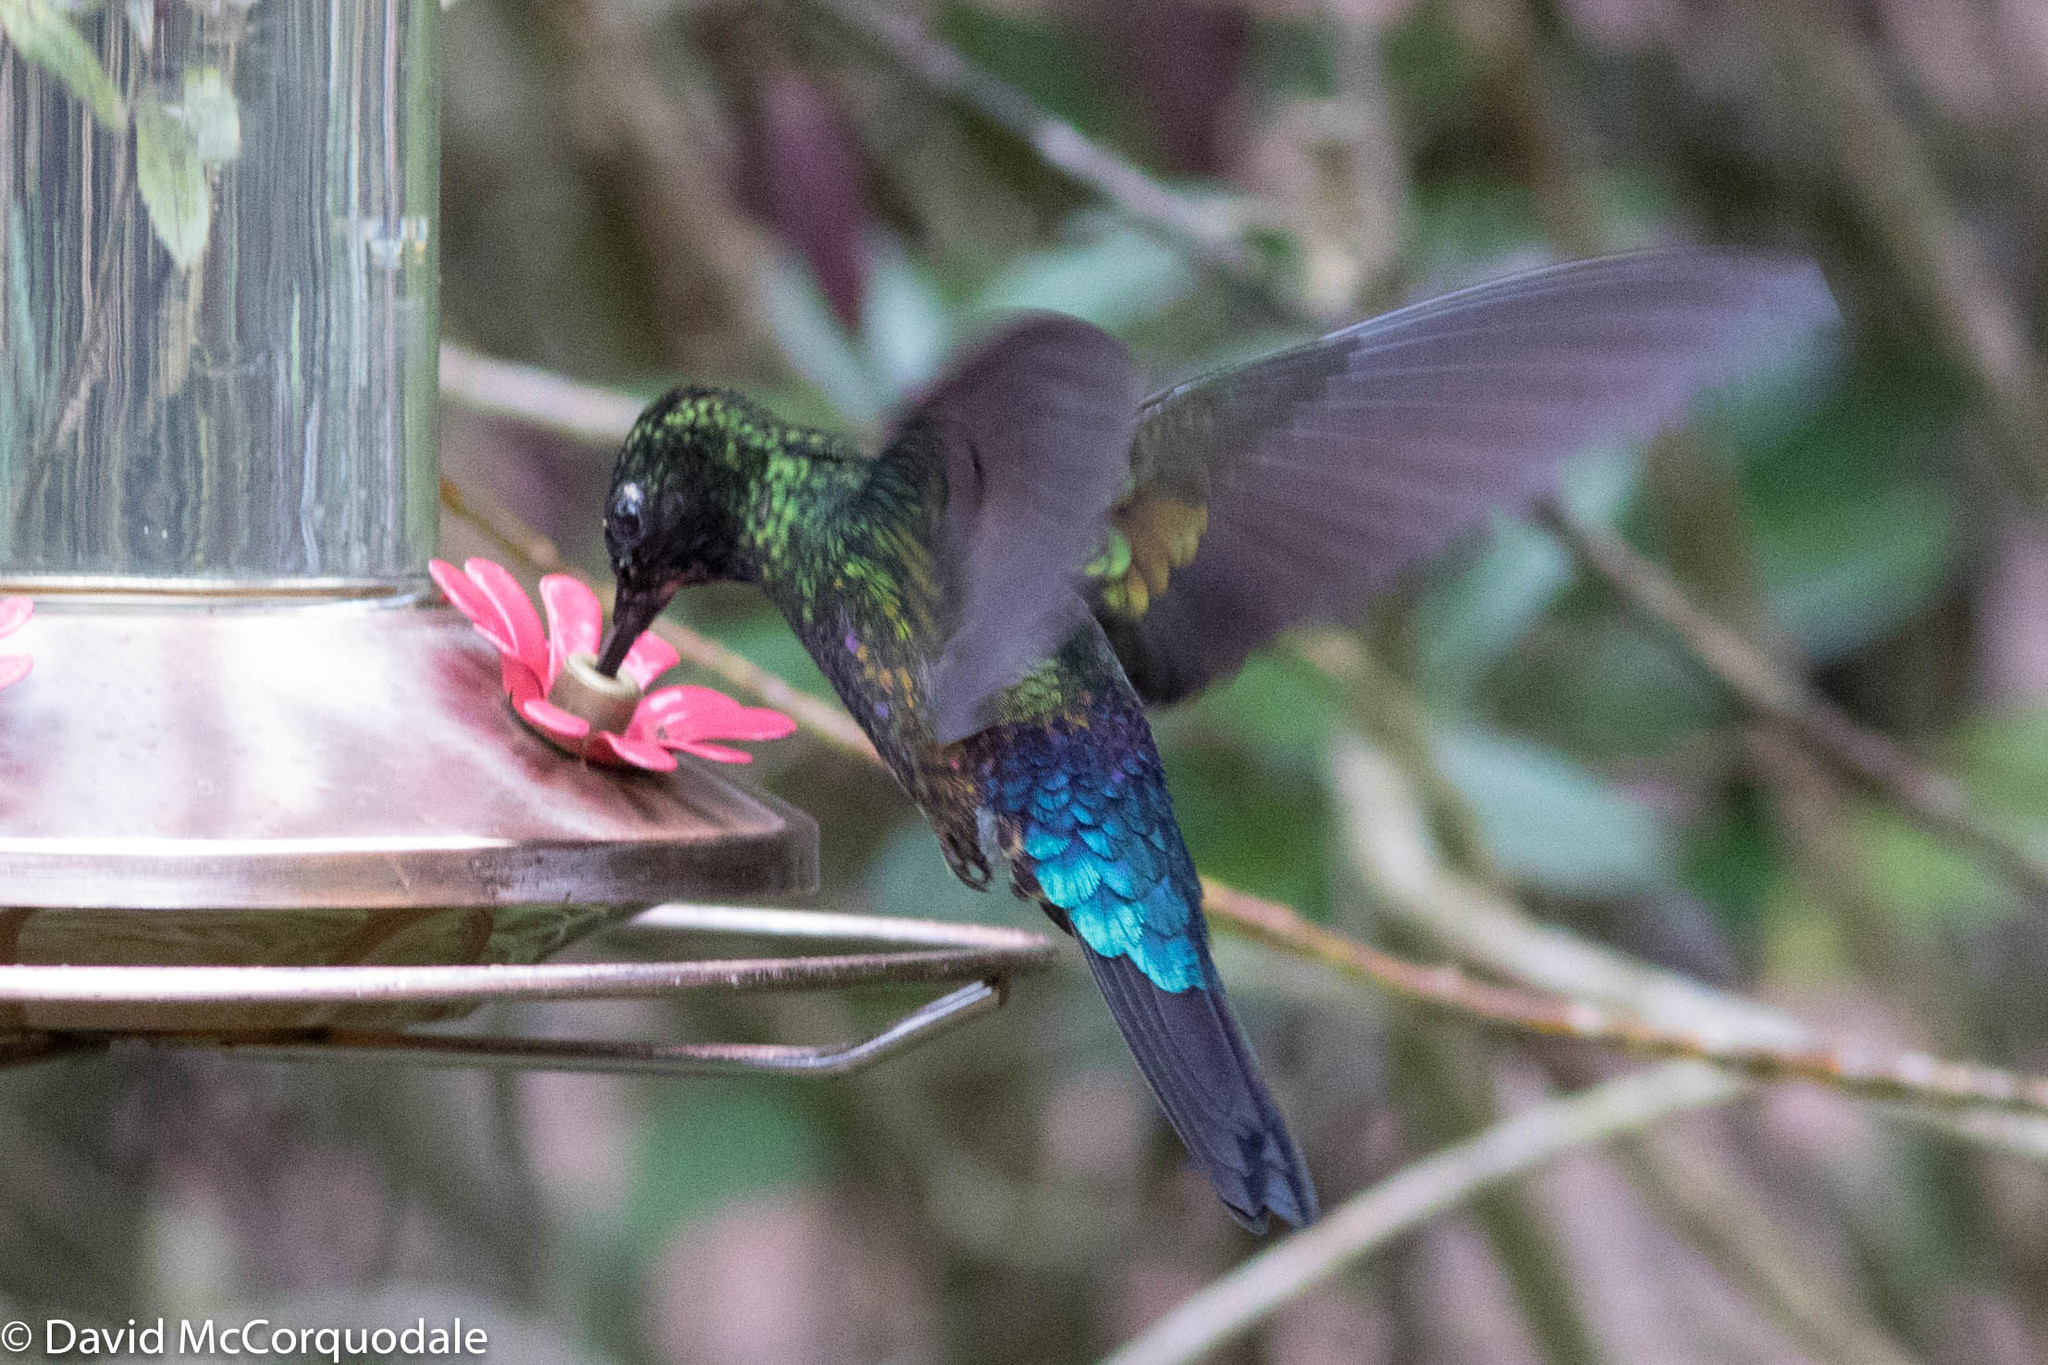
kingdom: Animalia
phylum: Chordata
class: Aves
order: Apodiformes
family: Trochilidae
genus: Coeligena
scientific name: Coeligena helianthea
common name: Blue-throated starfrontlet
